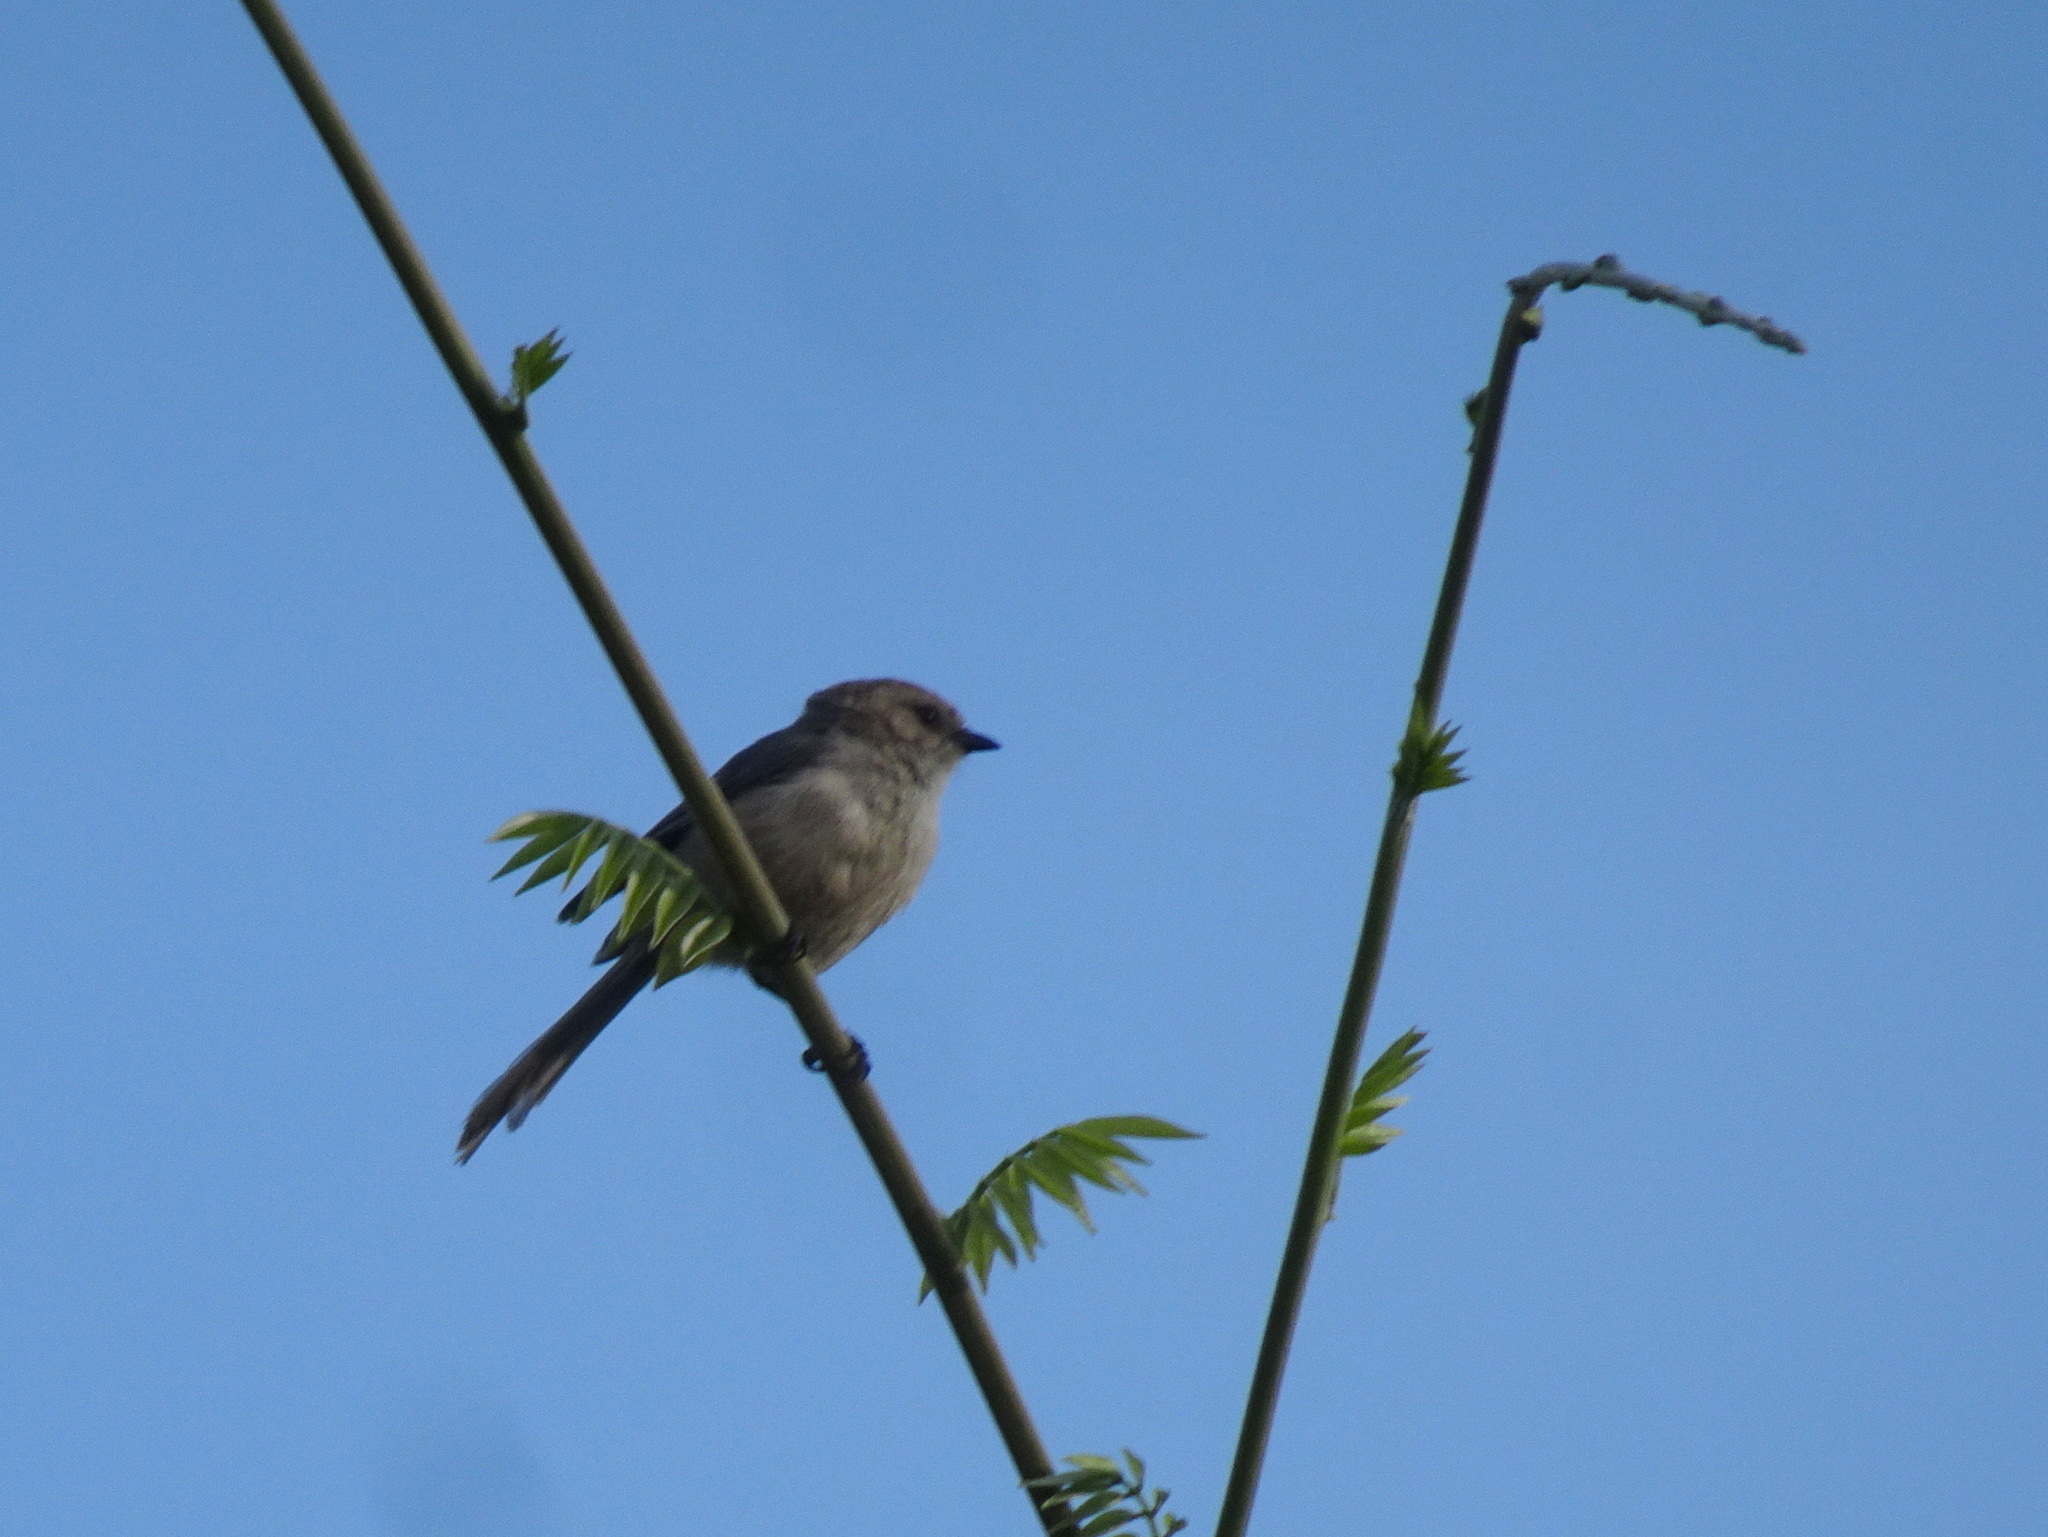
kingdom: Animalia
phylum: Chordata
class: Aves
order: Passeriformes
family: Aegithalidae
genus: Psaltriparus
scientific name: Psaltriparus minimus
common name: American bushtit
